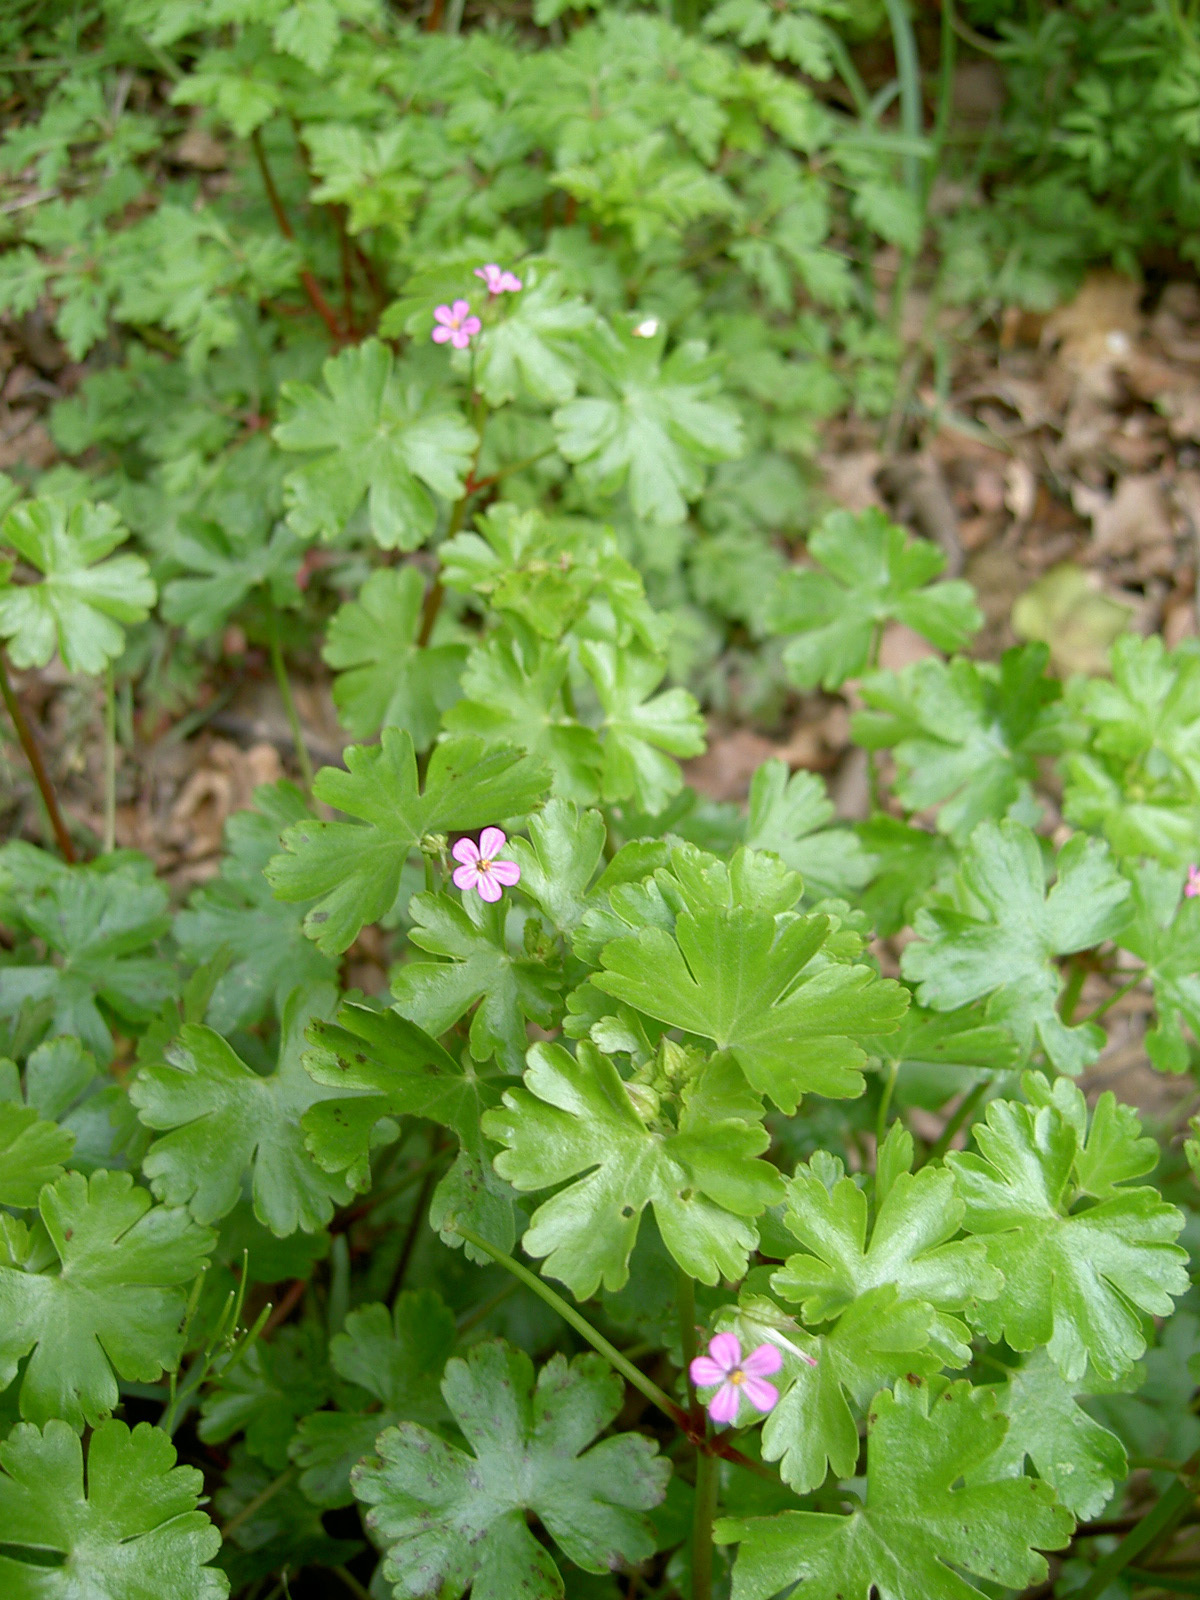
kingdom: Plantae
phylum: Tracheophyta
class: Magnoliopsida
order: Geraniales
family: Geraniaceae
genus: Geranium
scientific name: Geranium lucidum
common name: Shining crane's-bill
